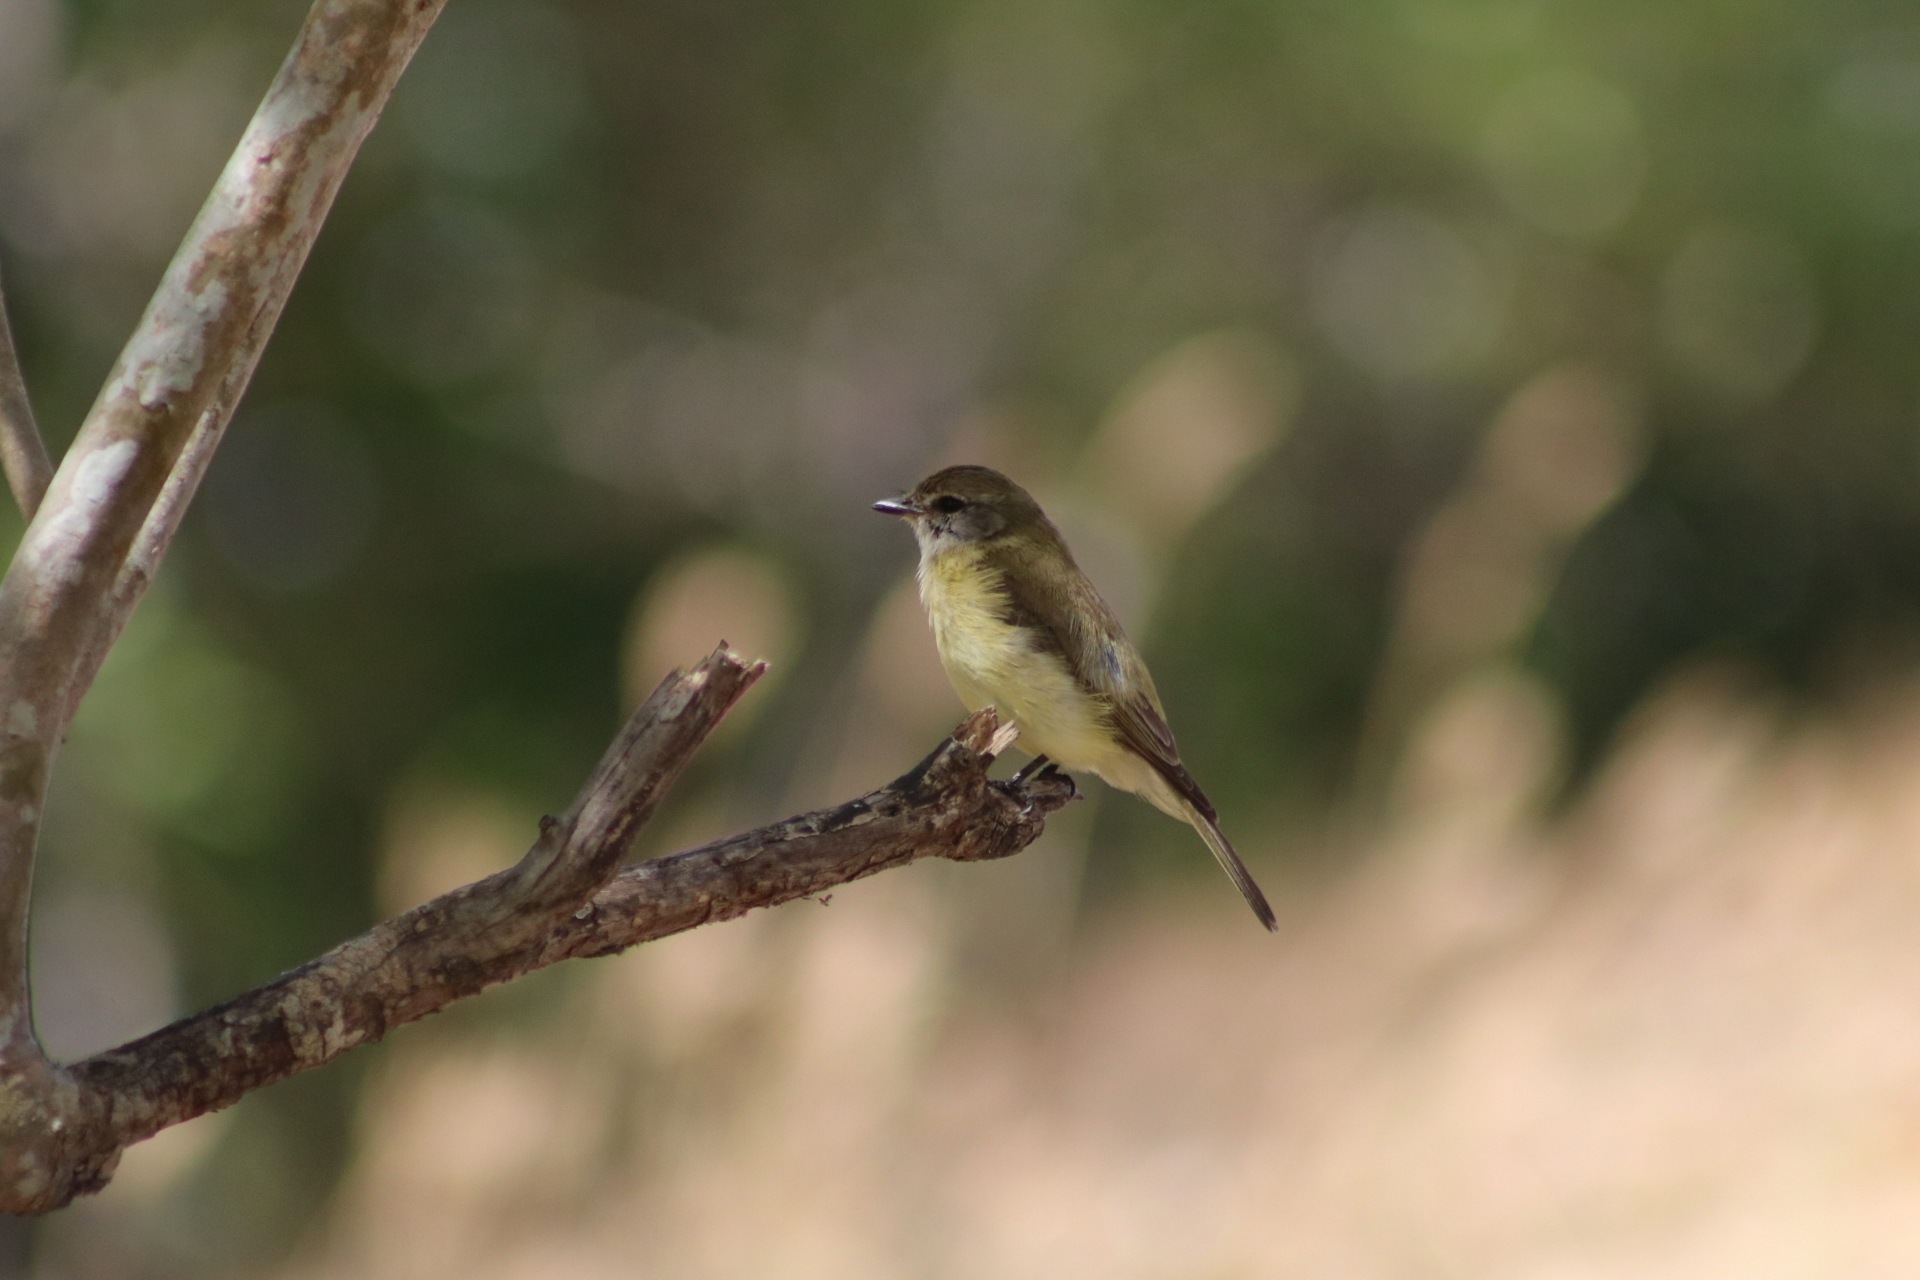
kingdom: Animalia
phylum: Chordata
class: Aves
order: Passeriformes
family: Petroicidae
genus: Microeca
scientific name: Microeca flavigaster
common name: Lemon-bellied flyrobin
